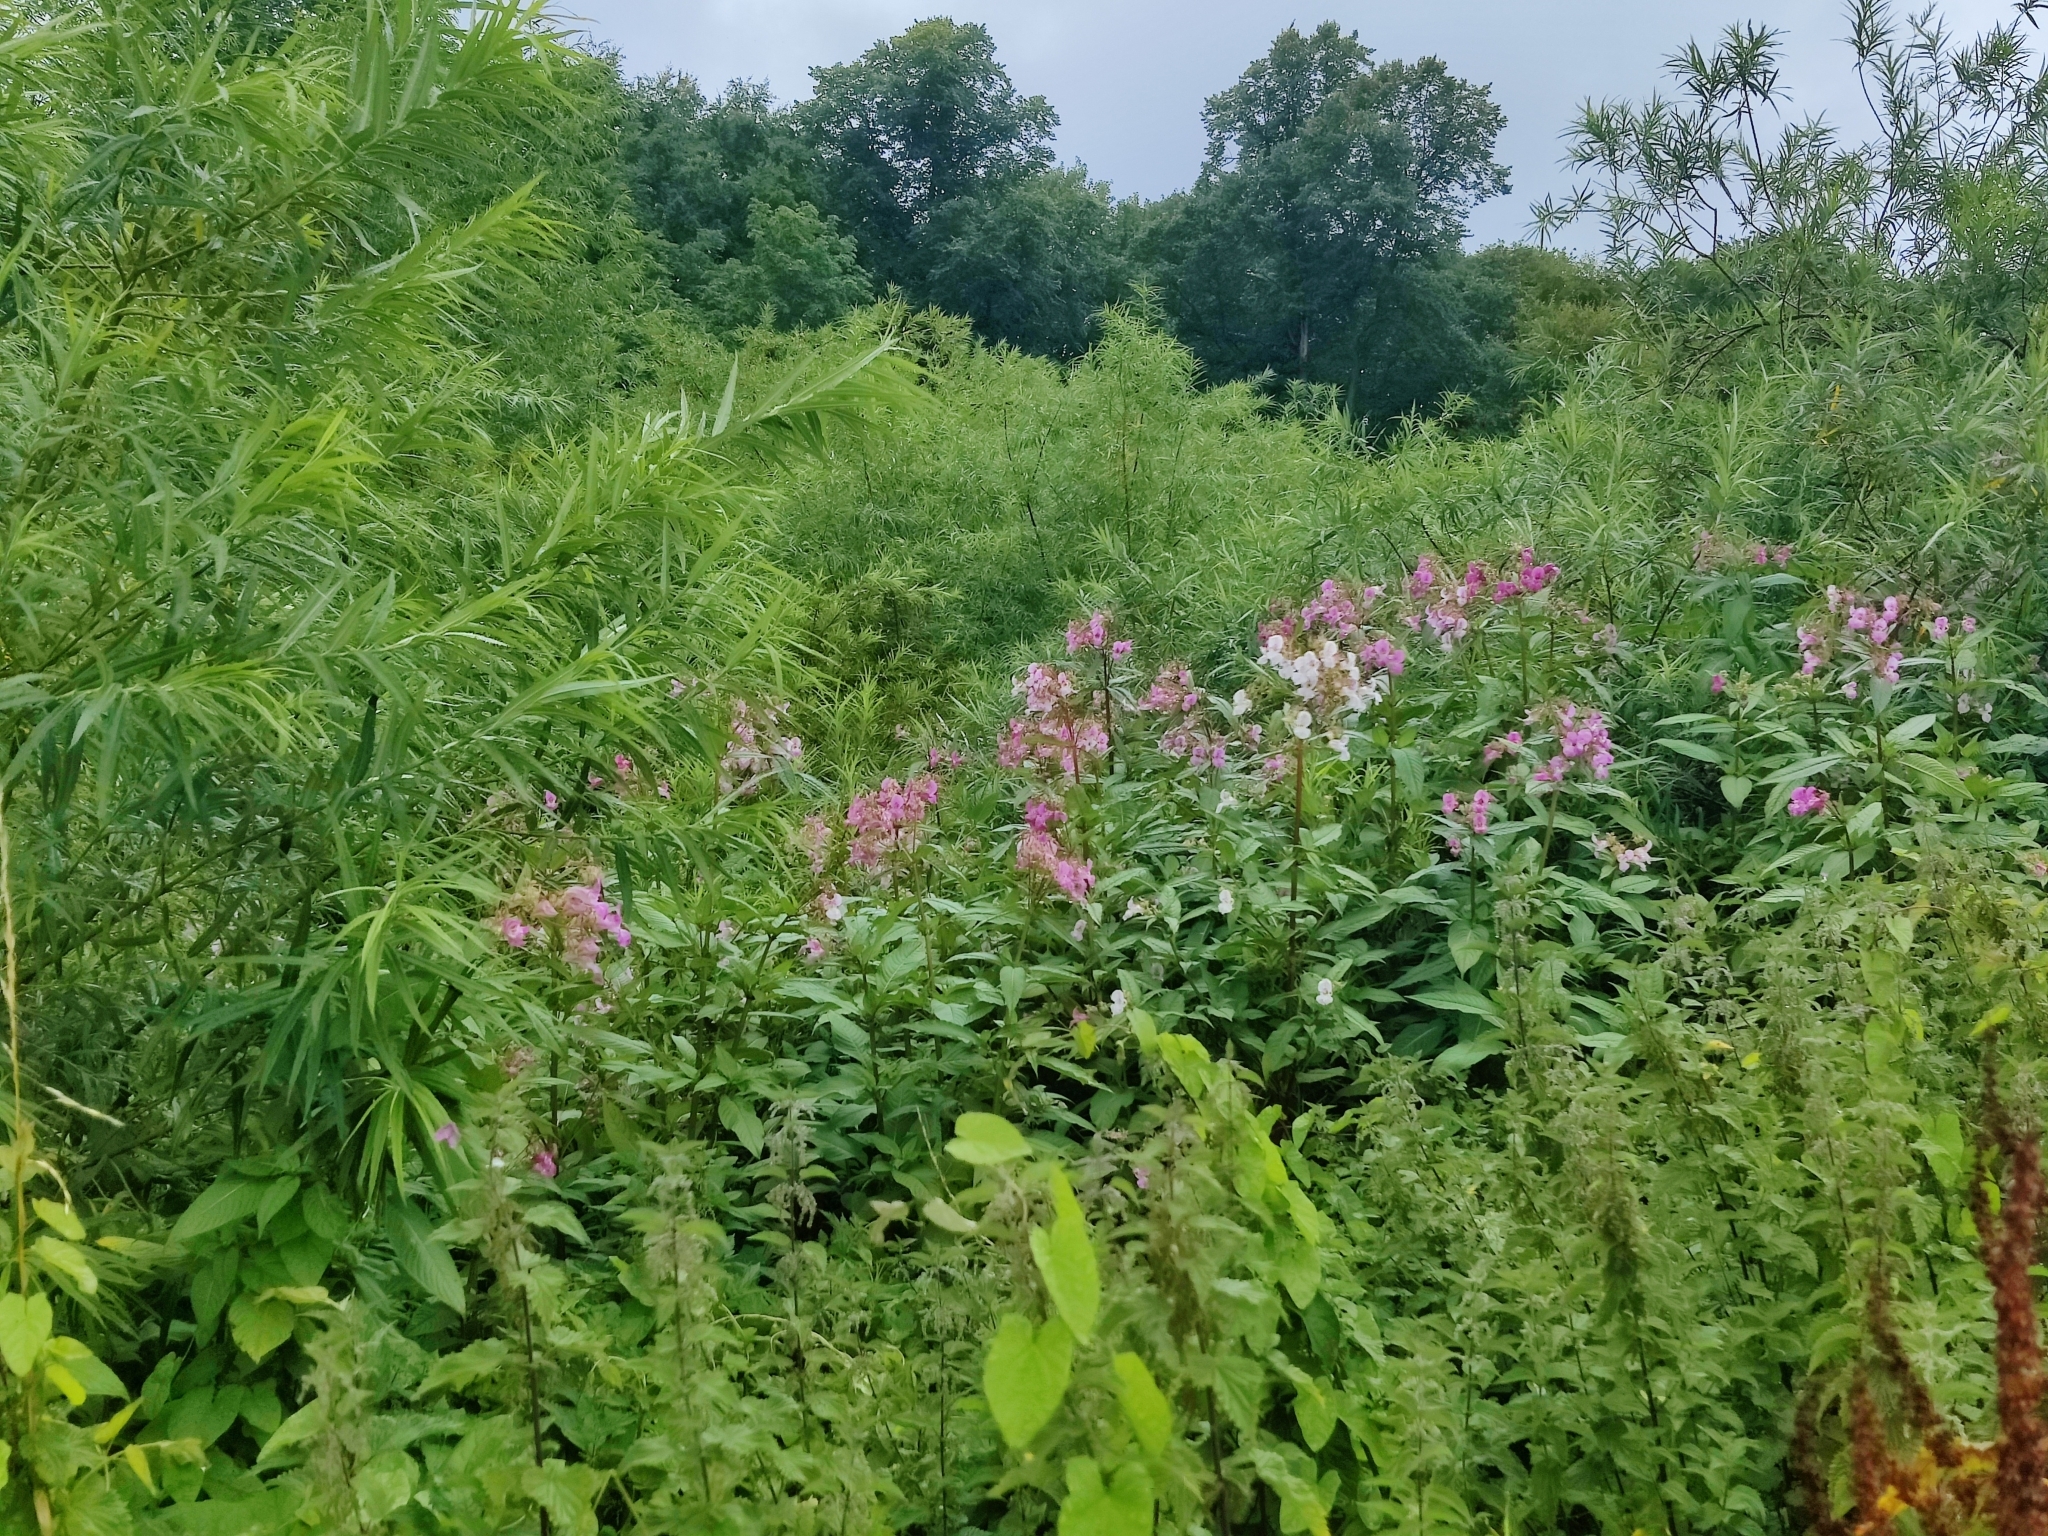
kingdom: Plantae
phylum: Tracheophyta
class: Magnoliopsida
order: Ericales
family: Balsaminaceae
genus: Impatiens
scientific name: Impatiens glandulifera
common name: Himalayan balsam
